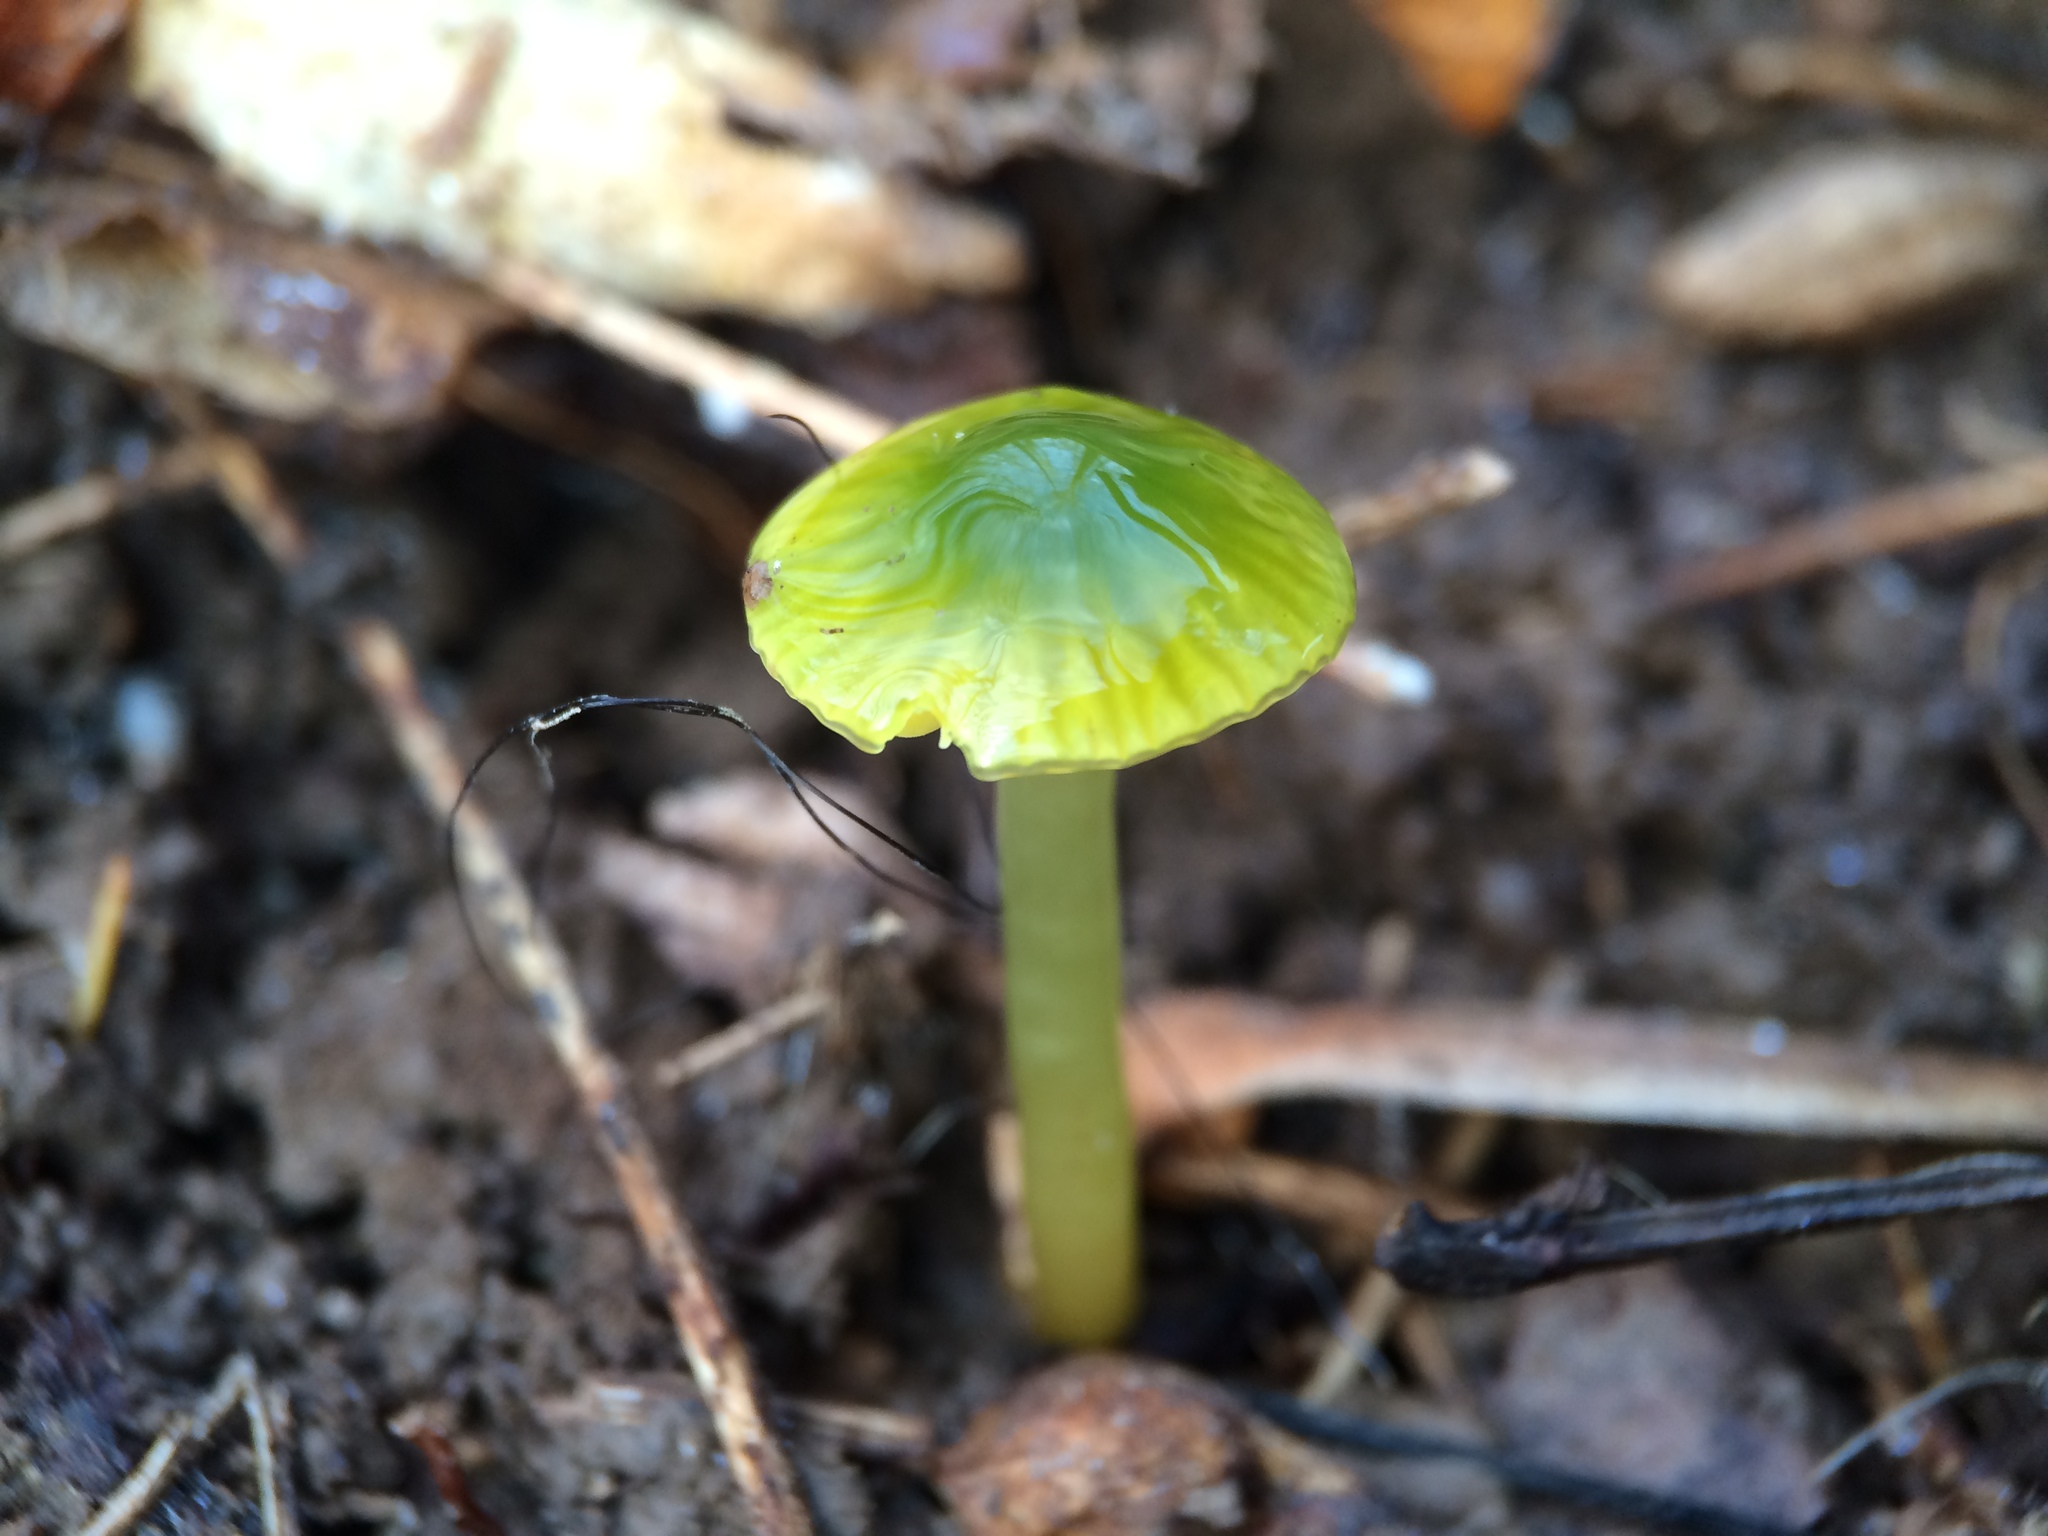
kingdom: Fungi
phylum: Basidiomycota
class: Agaricomycetes
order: Agaricales
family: Hygrophoraceae
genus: Gliophorus
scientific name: Gliophorus psittacinus
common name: Parrot wax-cap
